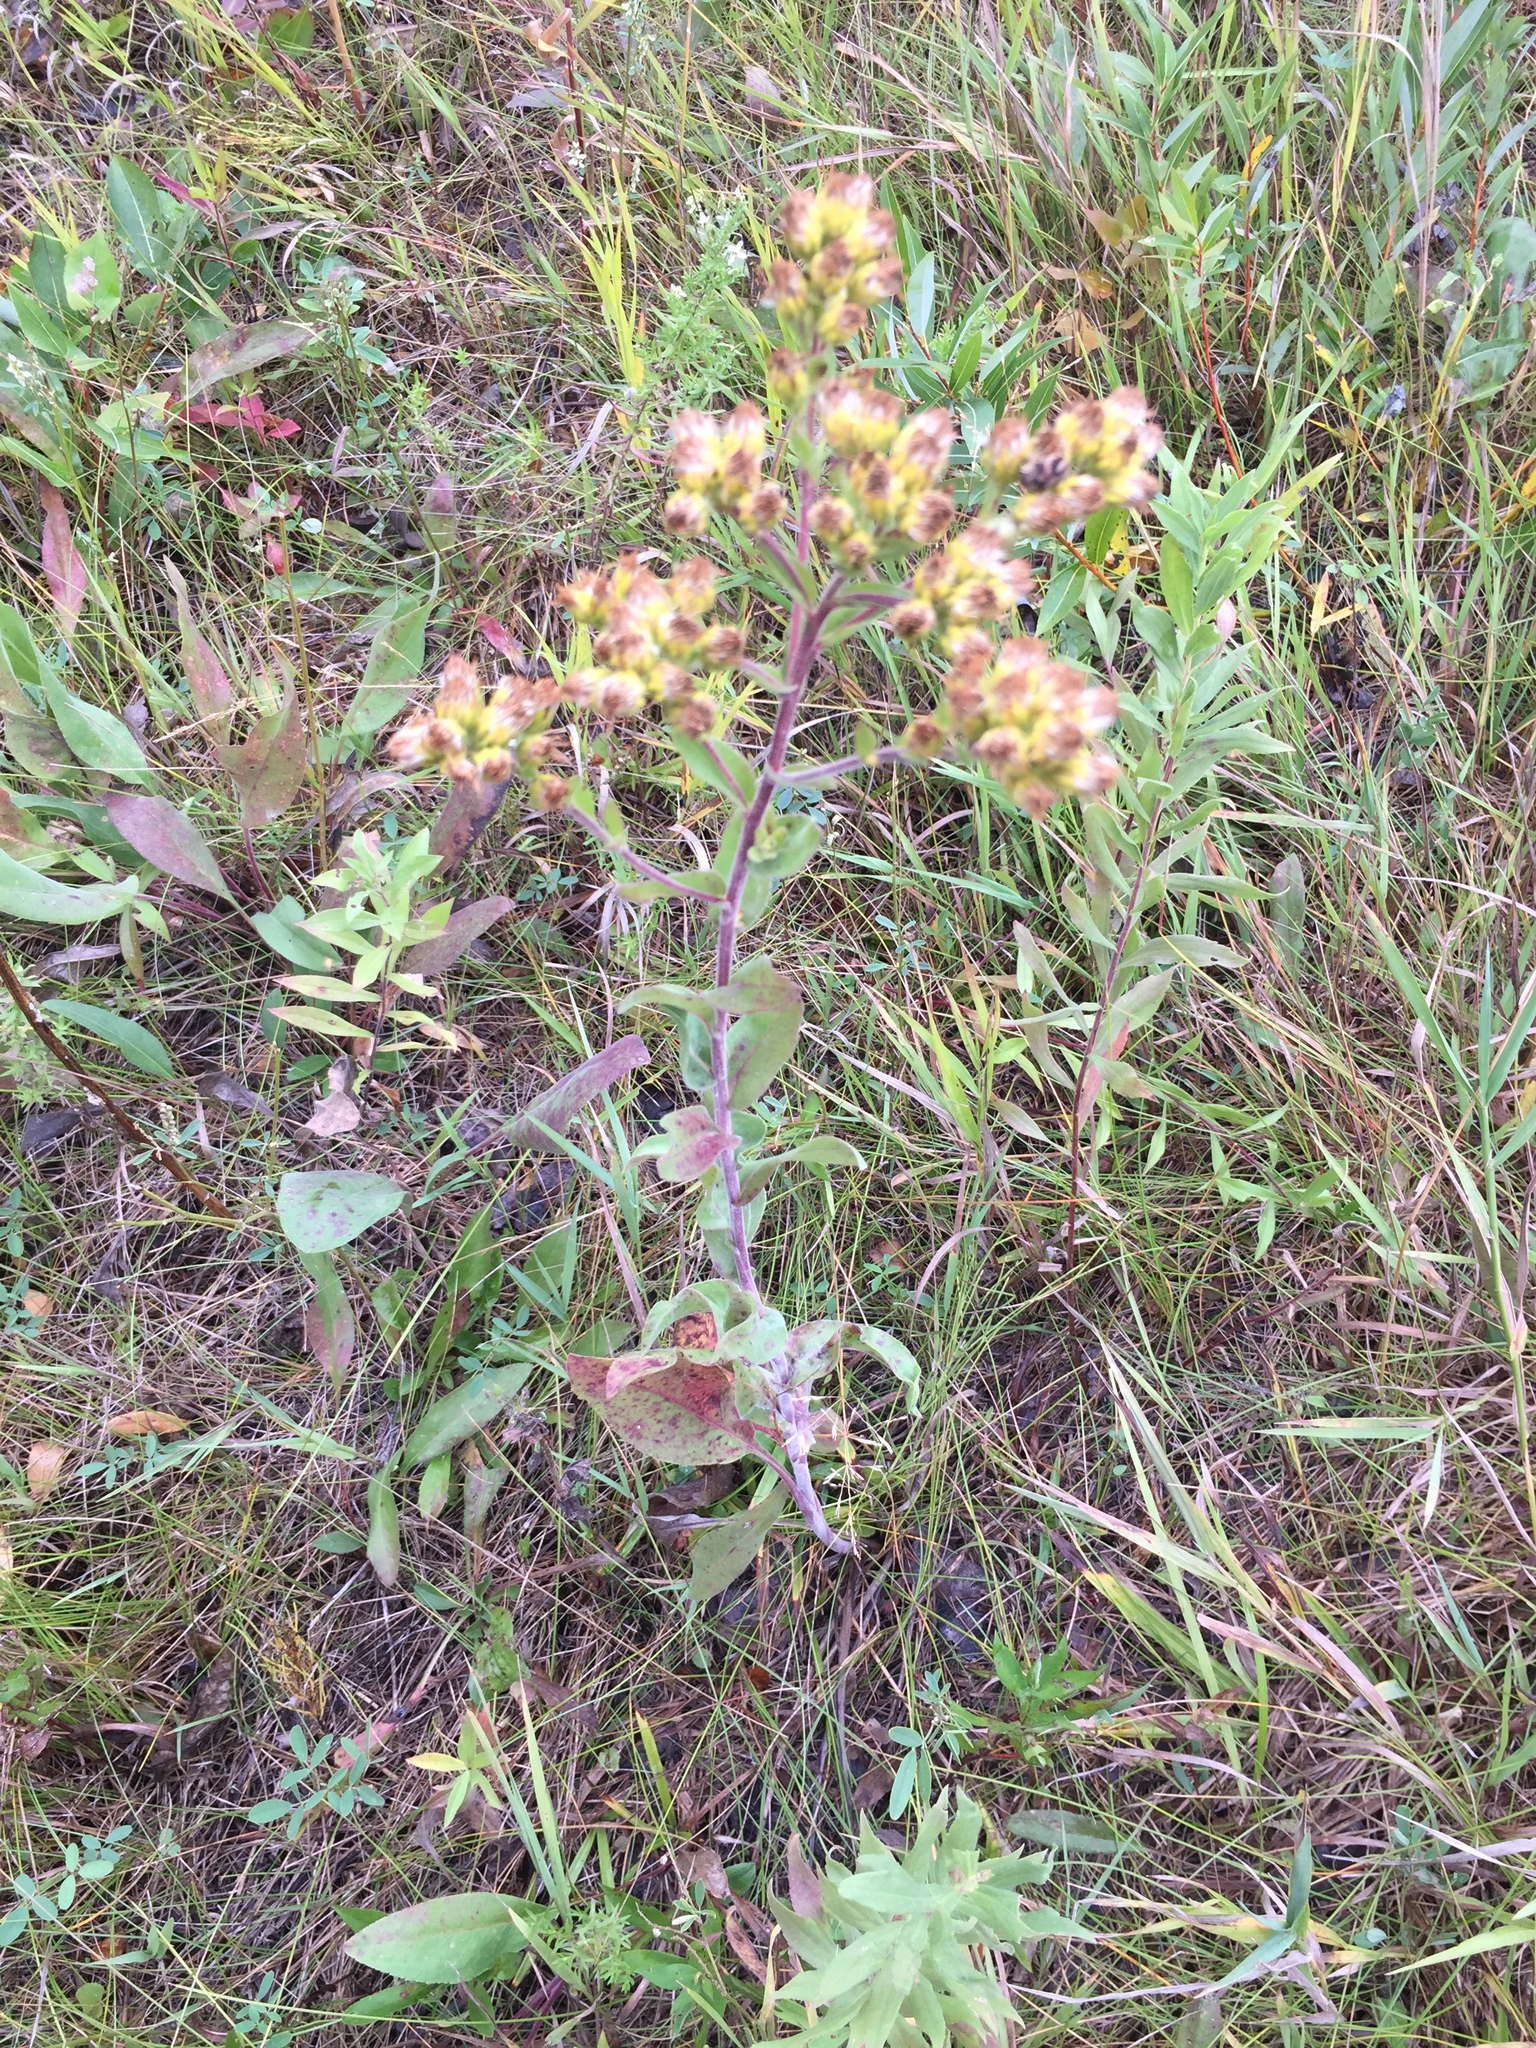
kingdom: Plantae
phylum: Tracheophyta
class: Magnoliopsida
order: Asterales
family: Asteraceae
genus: Solidago
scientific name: Solidago rigida
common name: Rigid goldenrod
